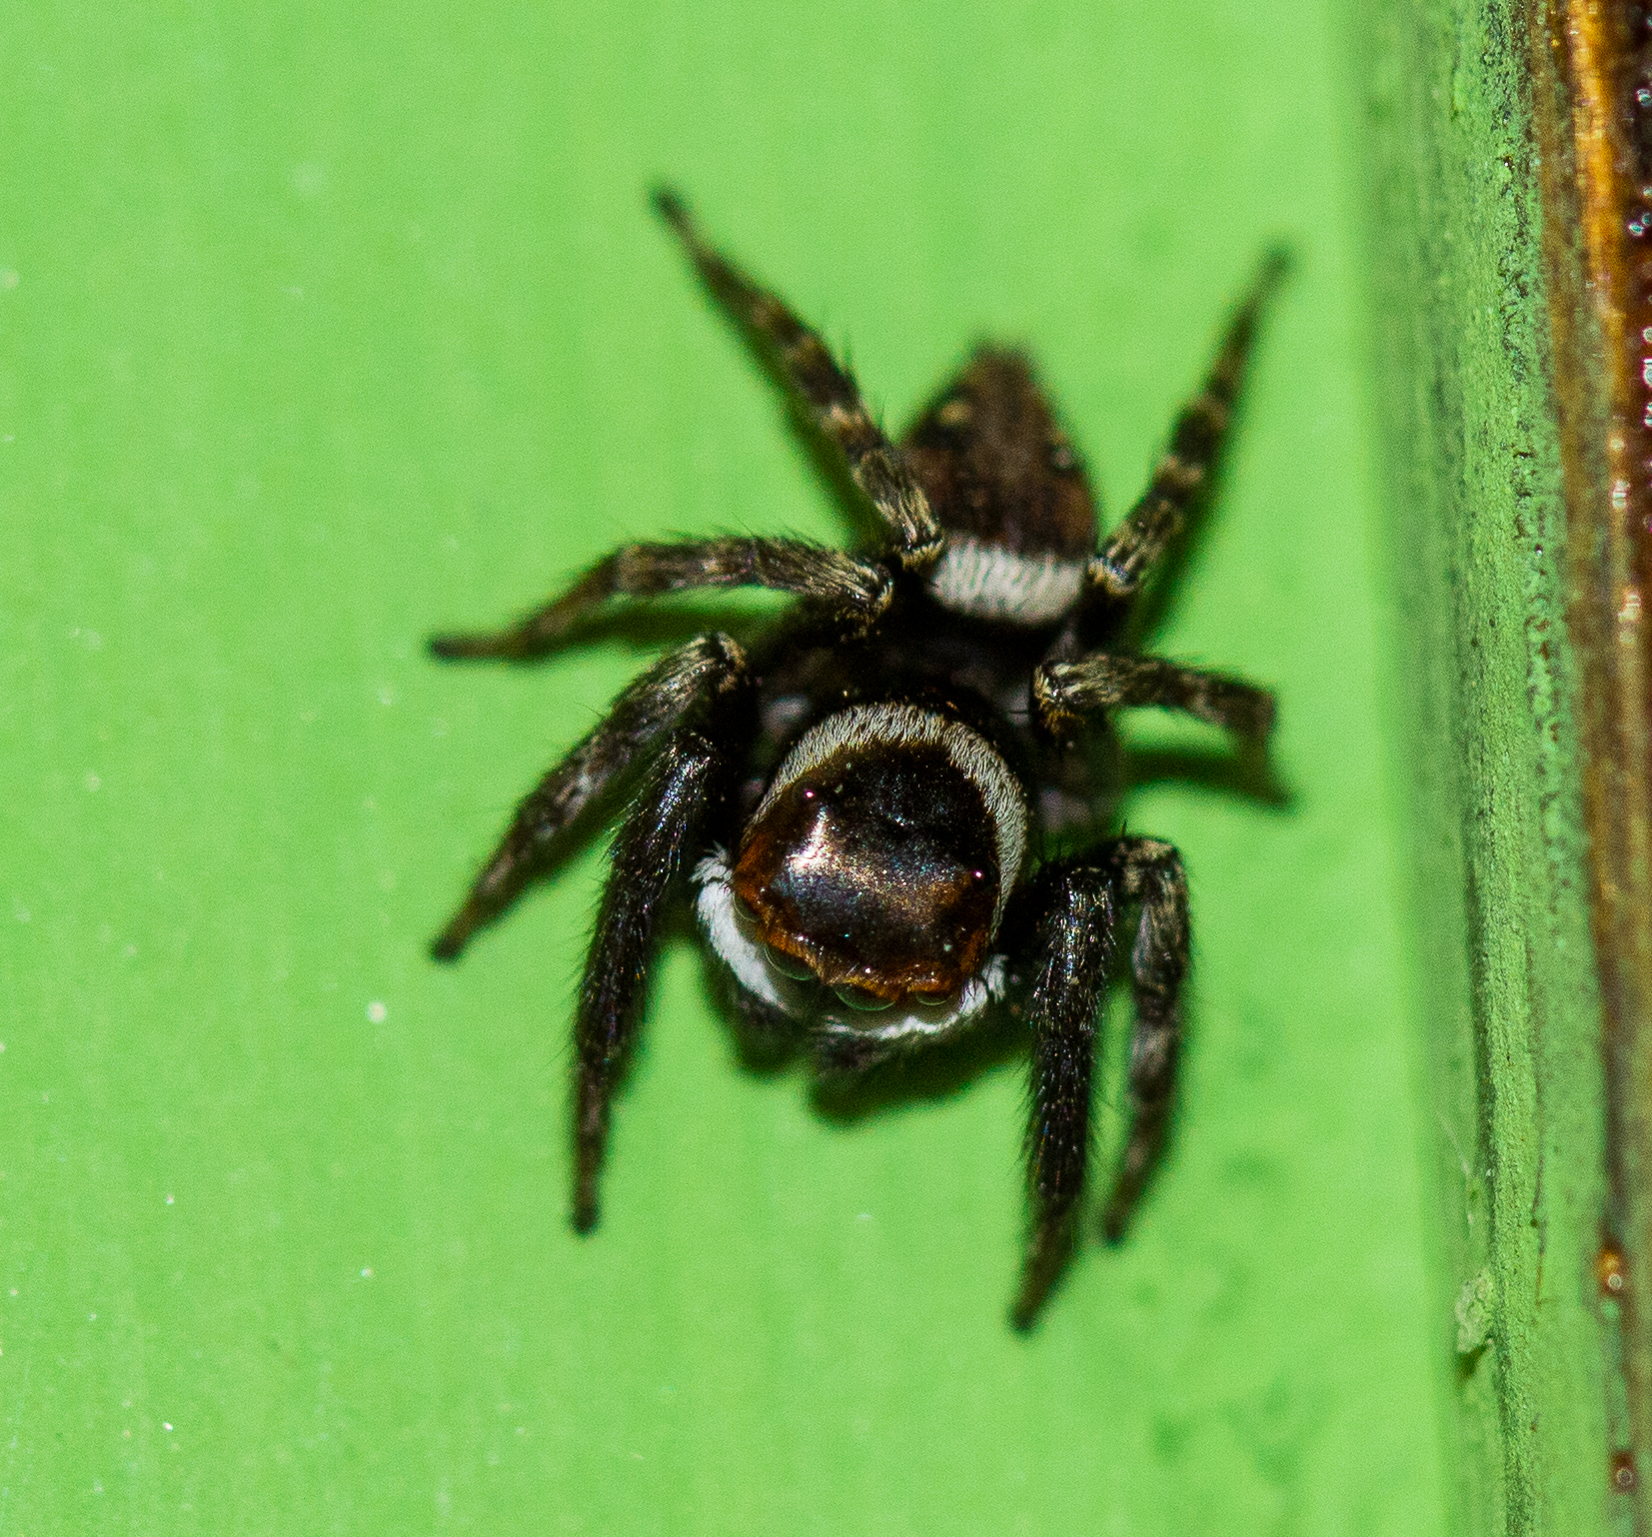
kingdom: Animalia
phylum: Arthropoda
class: Arachnida
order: Araneae
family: Salticidae
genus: Hasarius
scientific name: Hasarius adansoni
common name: Jumping spider
